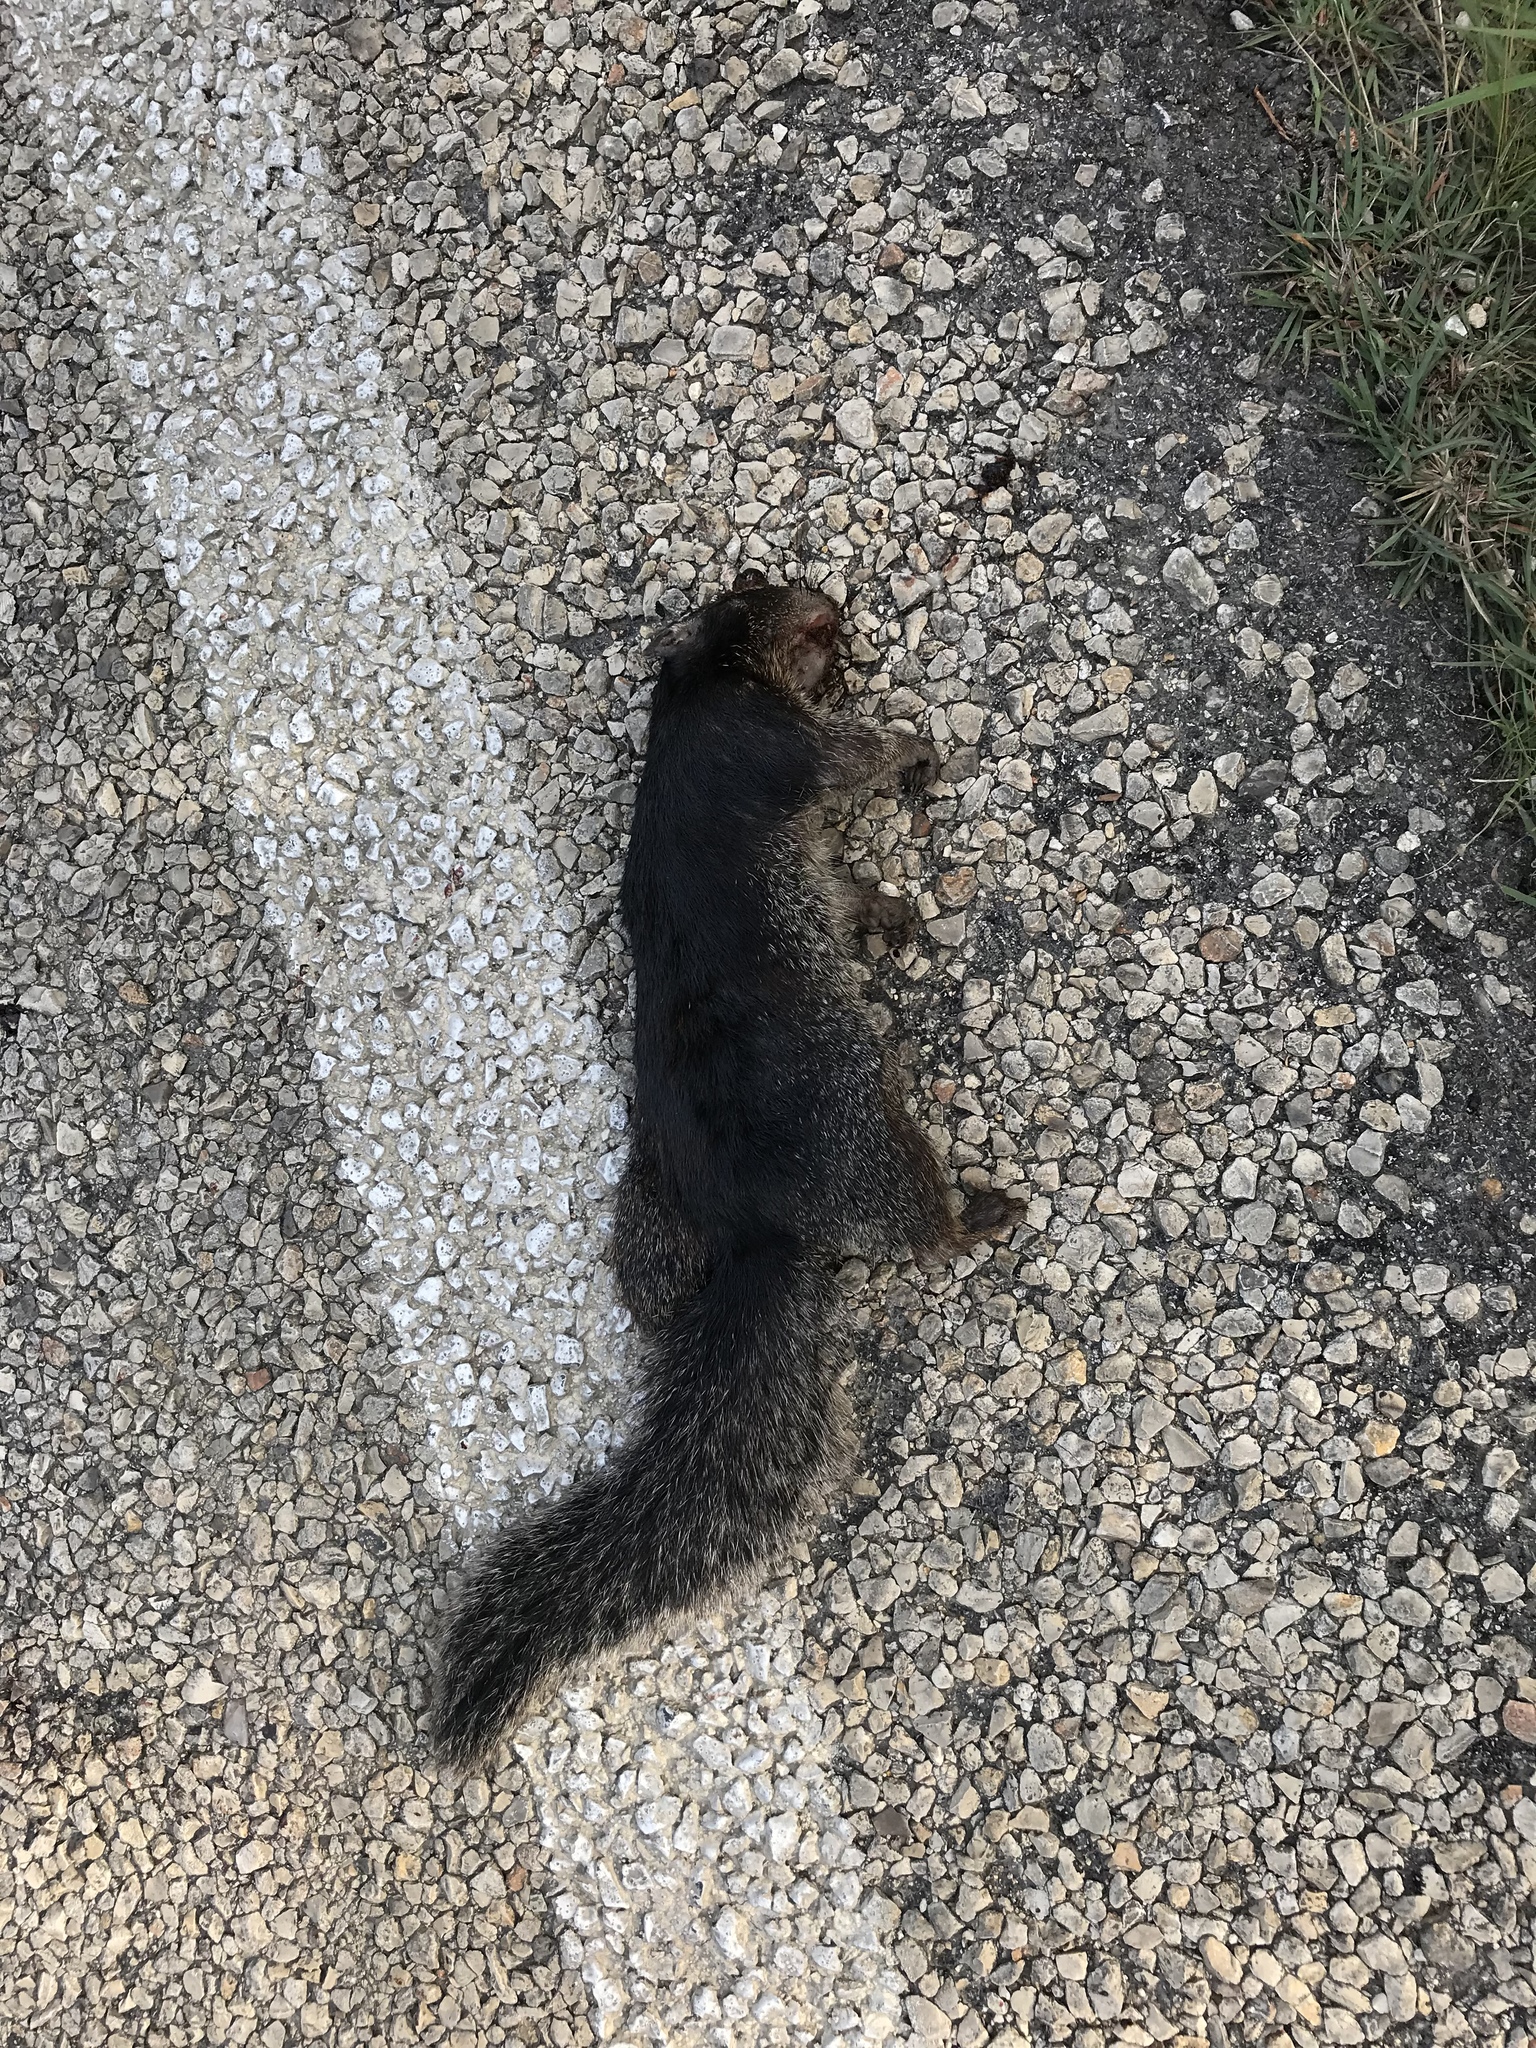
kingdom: Animalia
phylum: Chordata
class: Mammalia
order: Rodentia
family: Sciuridae
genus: Otospermophilus
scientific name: Otospermophilus variegatus
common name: Rock squirrel
